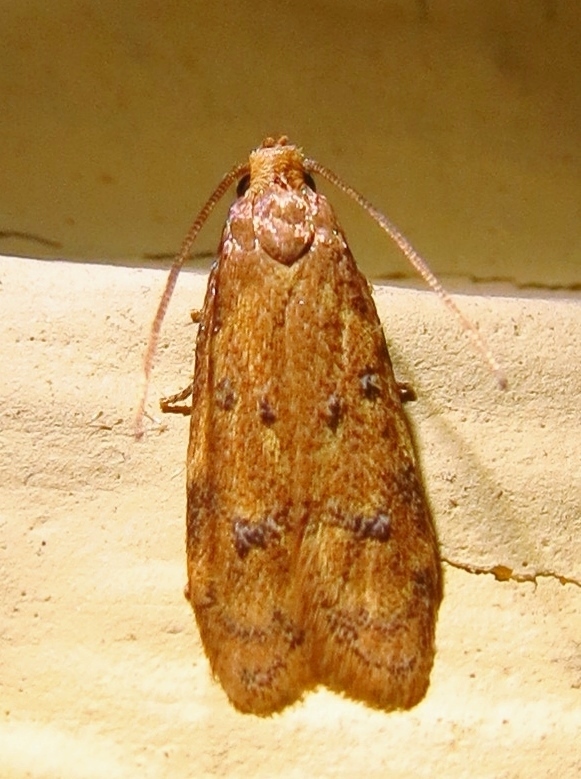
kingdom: Animalia
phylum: Arthropoda
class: Insecta
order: Lepidoptera
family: Autostichidae
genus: Gerdana
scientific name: Gerdana caritella
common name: Gerdana moth
